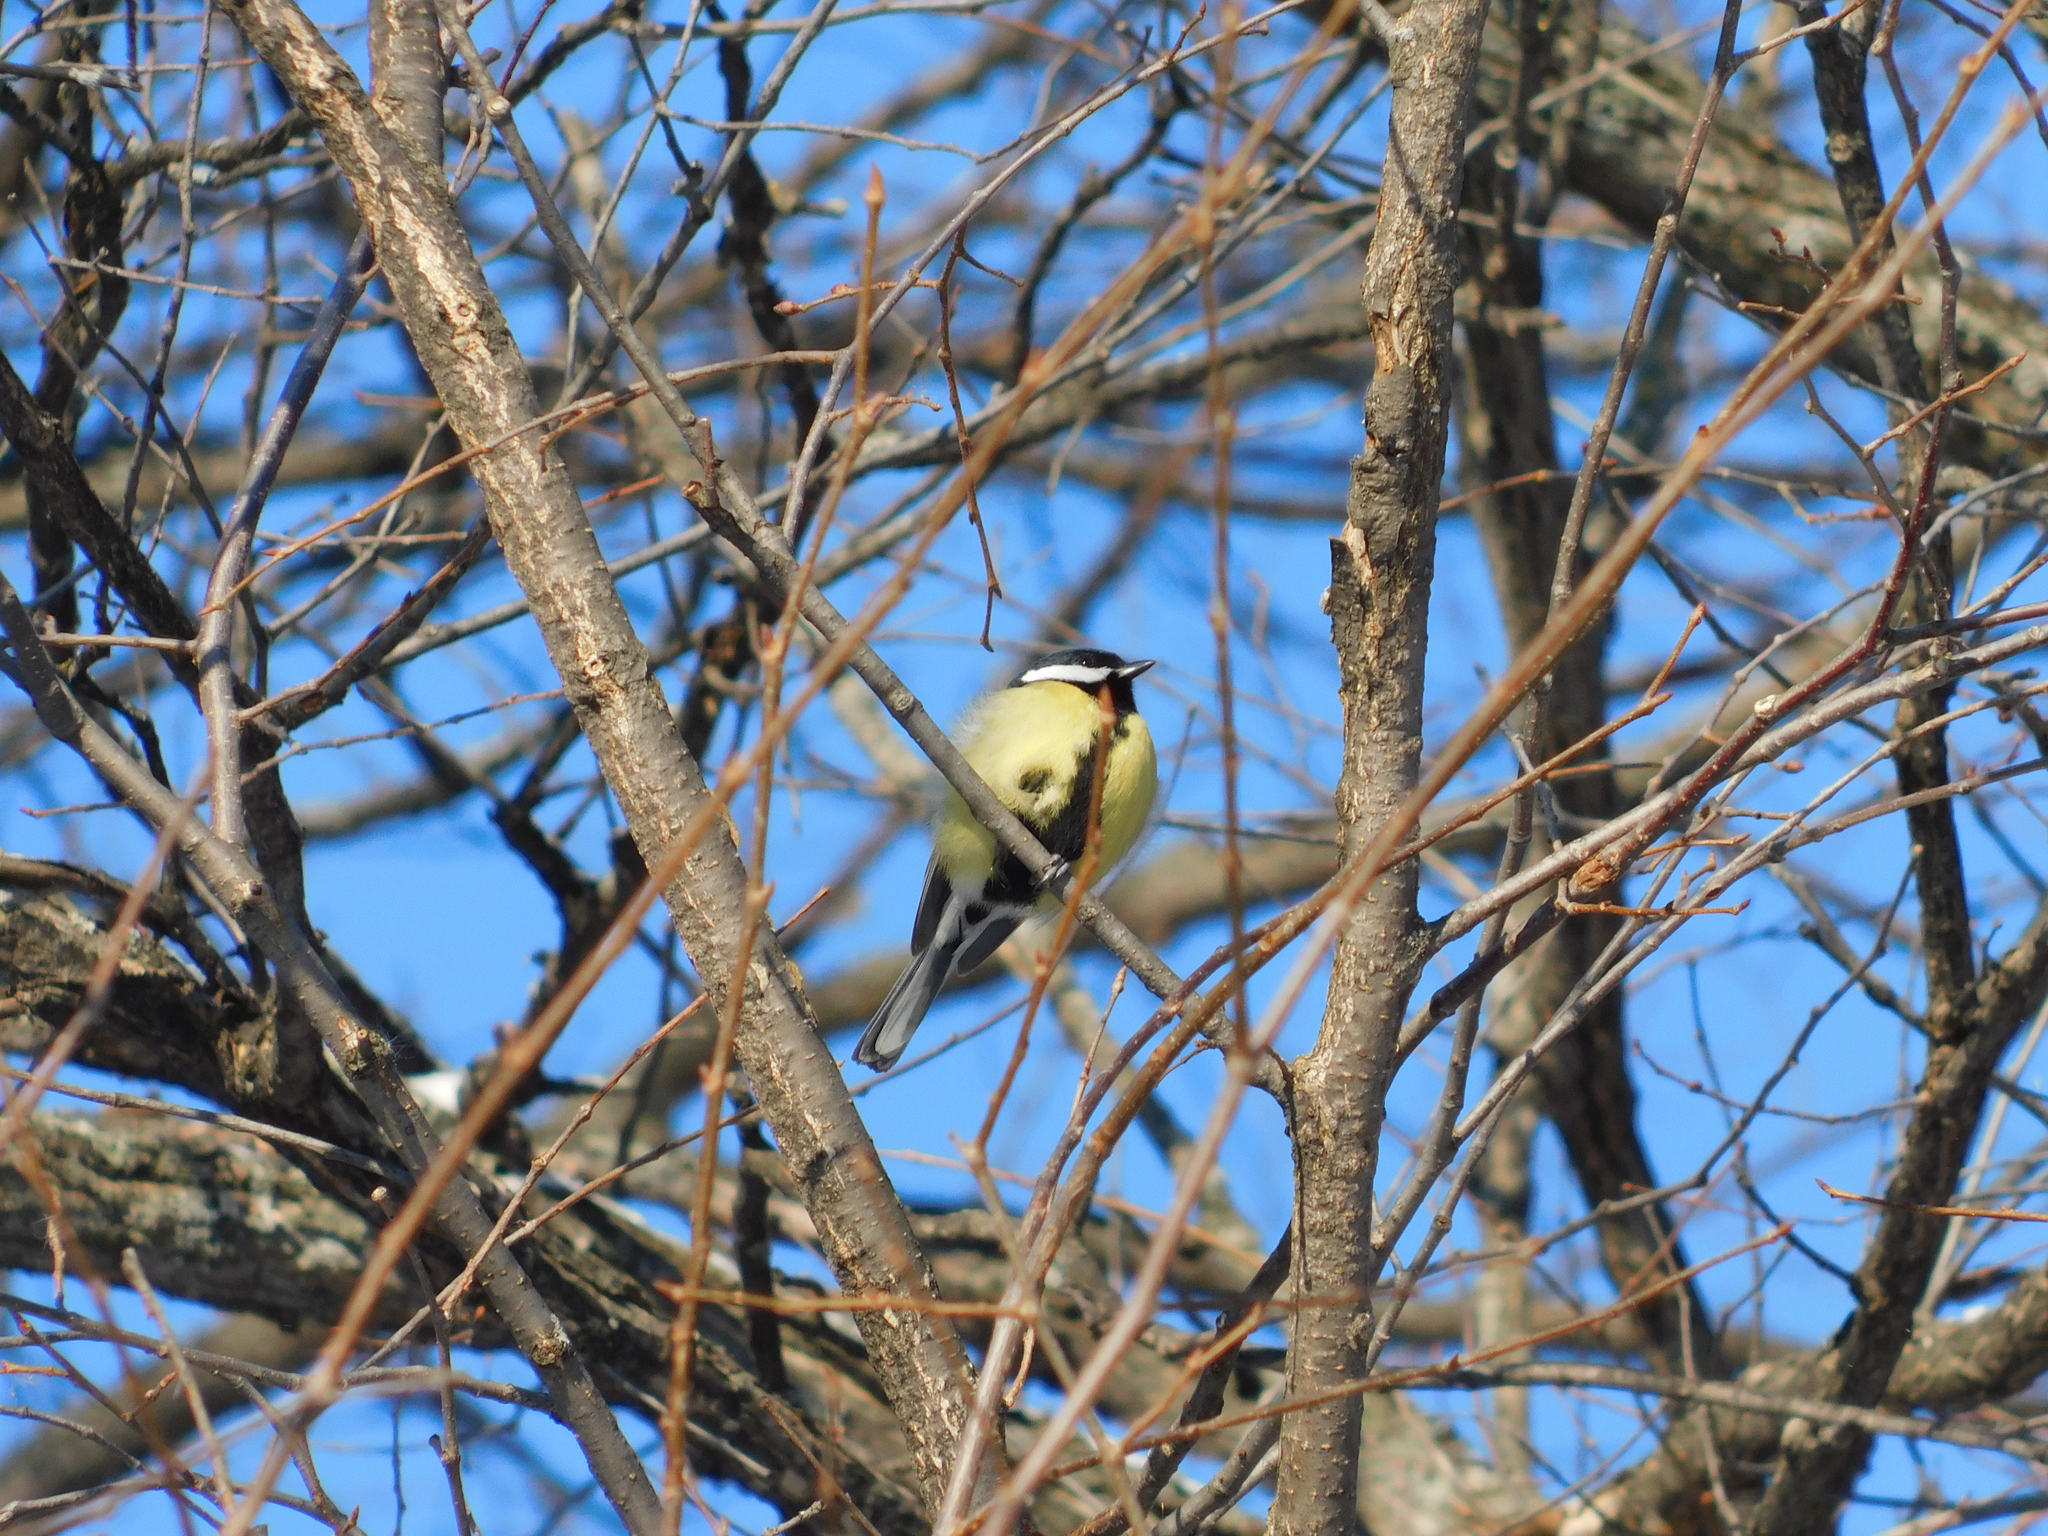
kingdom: Animalia
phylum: Chordata
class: Aves
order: Passeriformes
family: Paridae
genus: Parus
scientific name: Parus major
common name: Great tit
